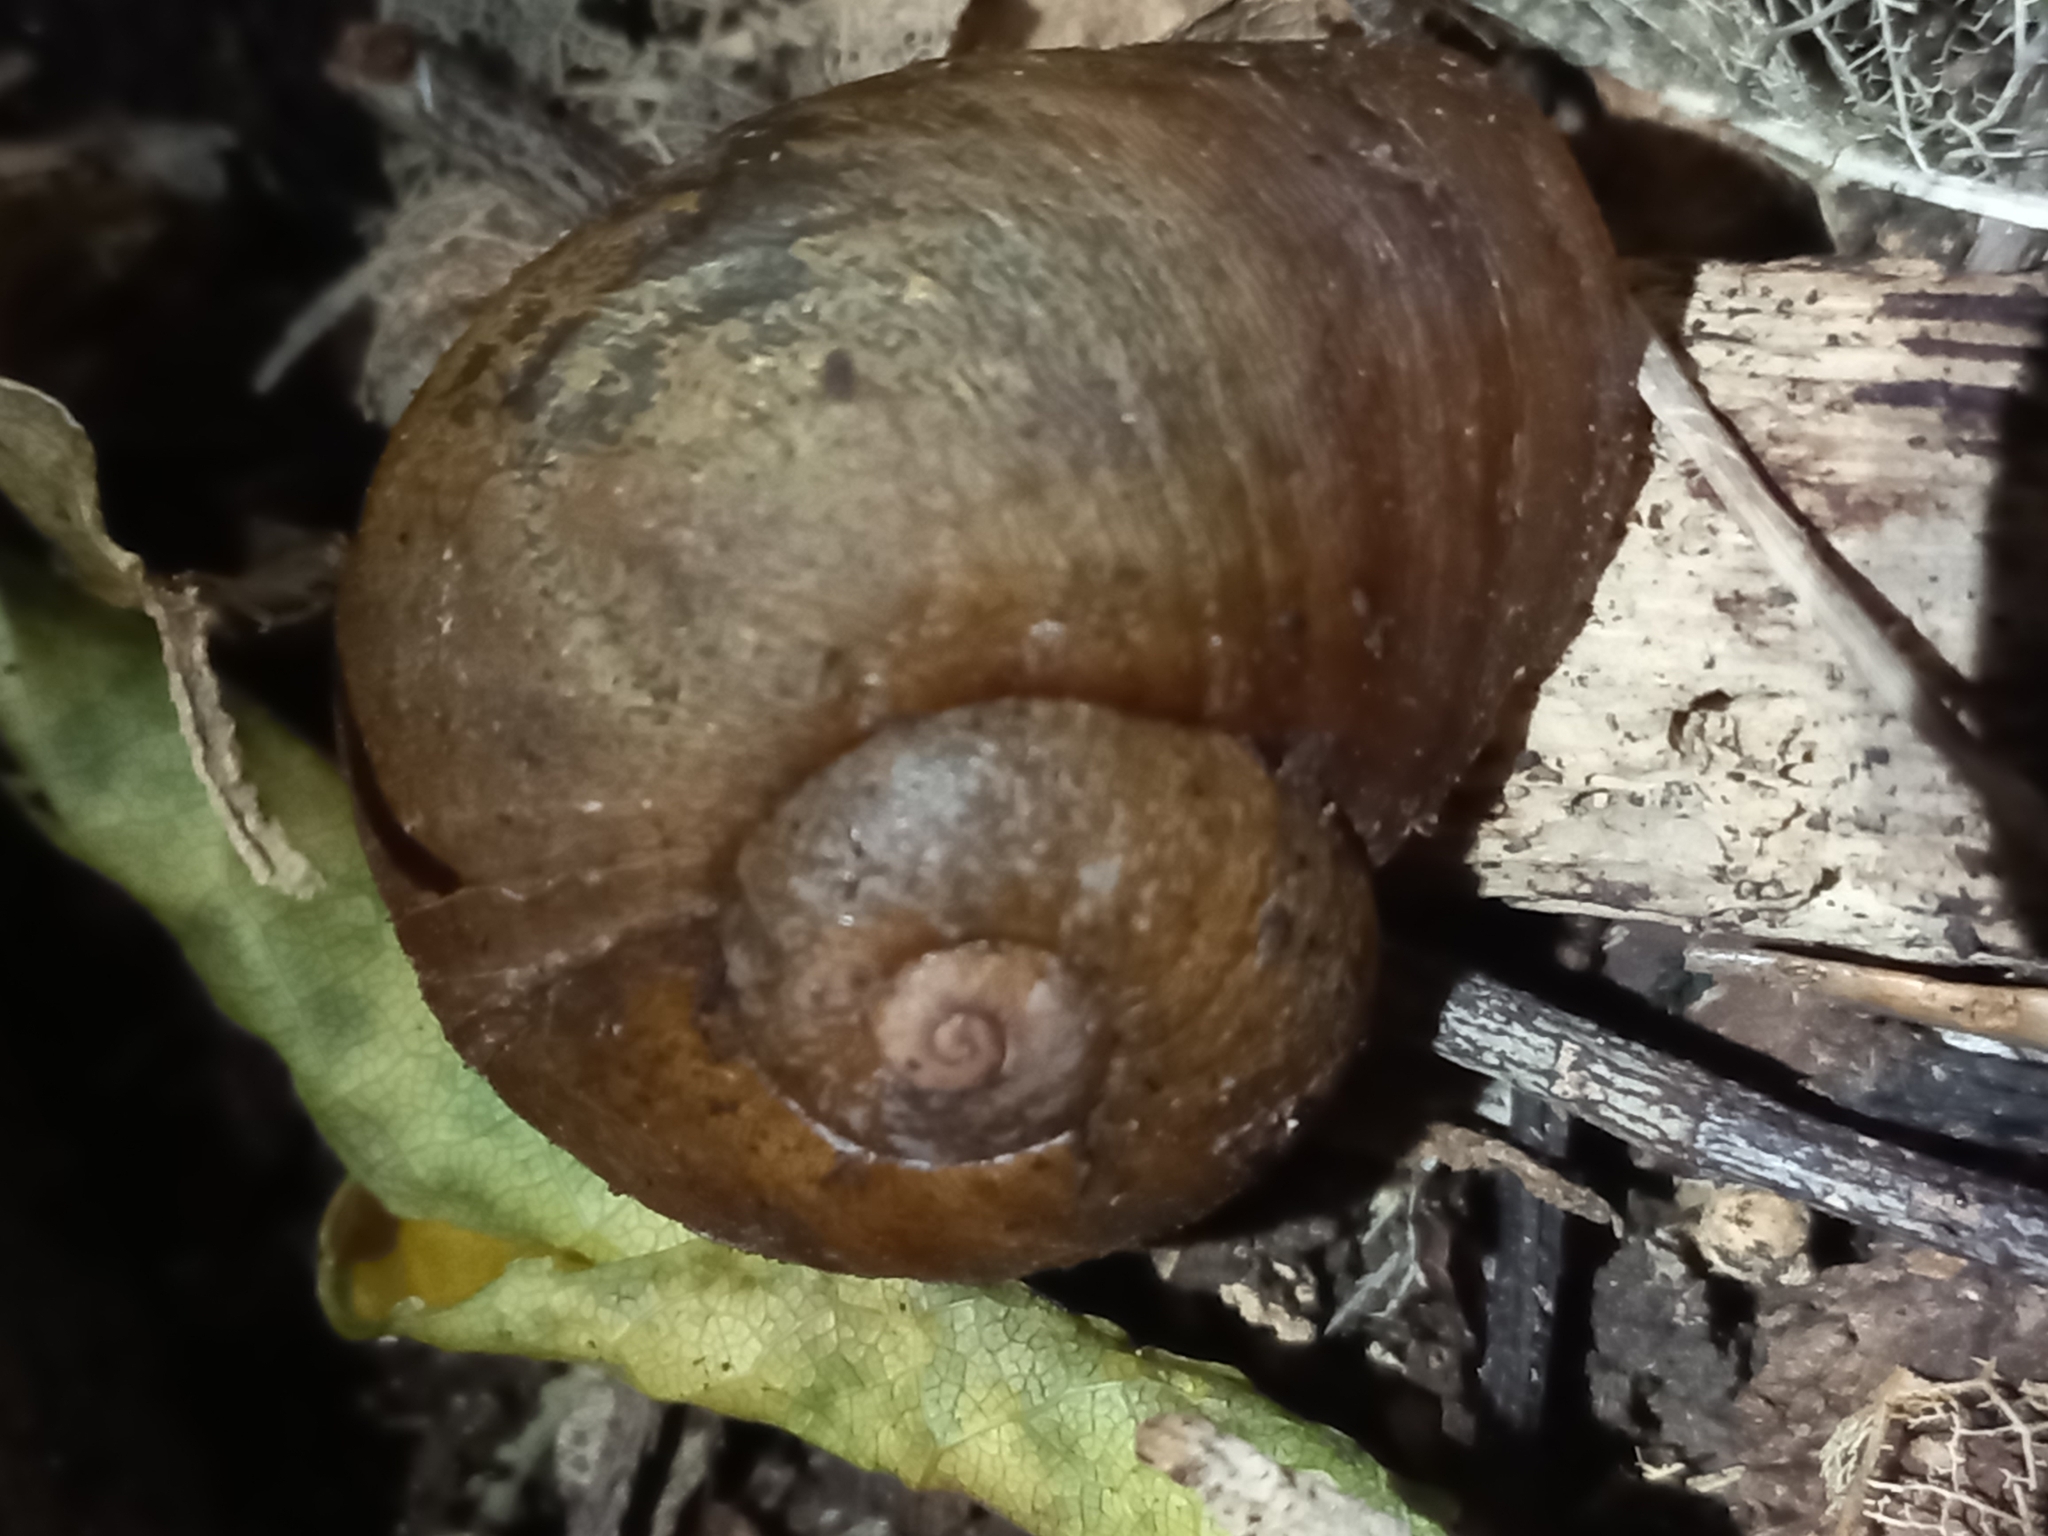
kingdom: Animalia
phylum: Mollusca
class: Gastropoda
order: Stylommatophora
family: Rhytididae
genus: Rhytida
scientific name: Rhytida stephenensis
